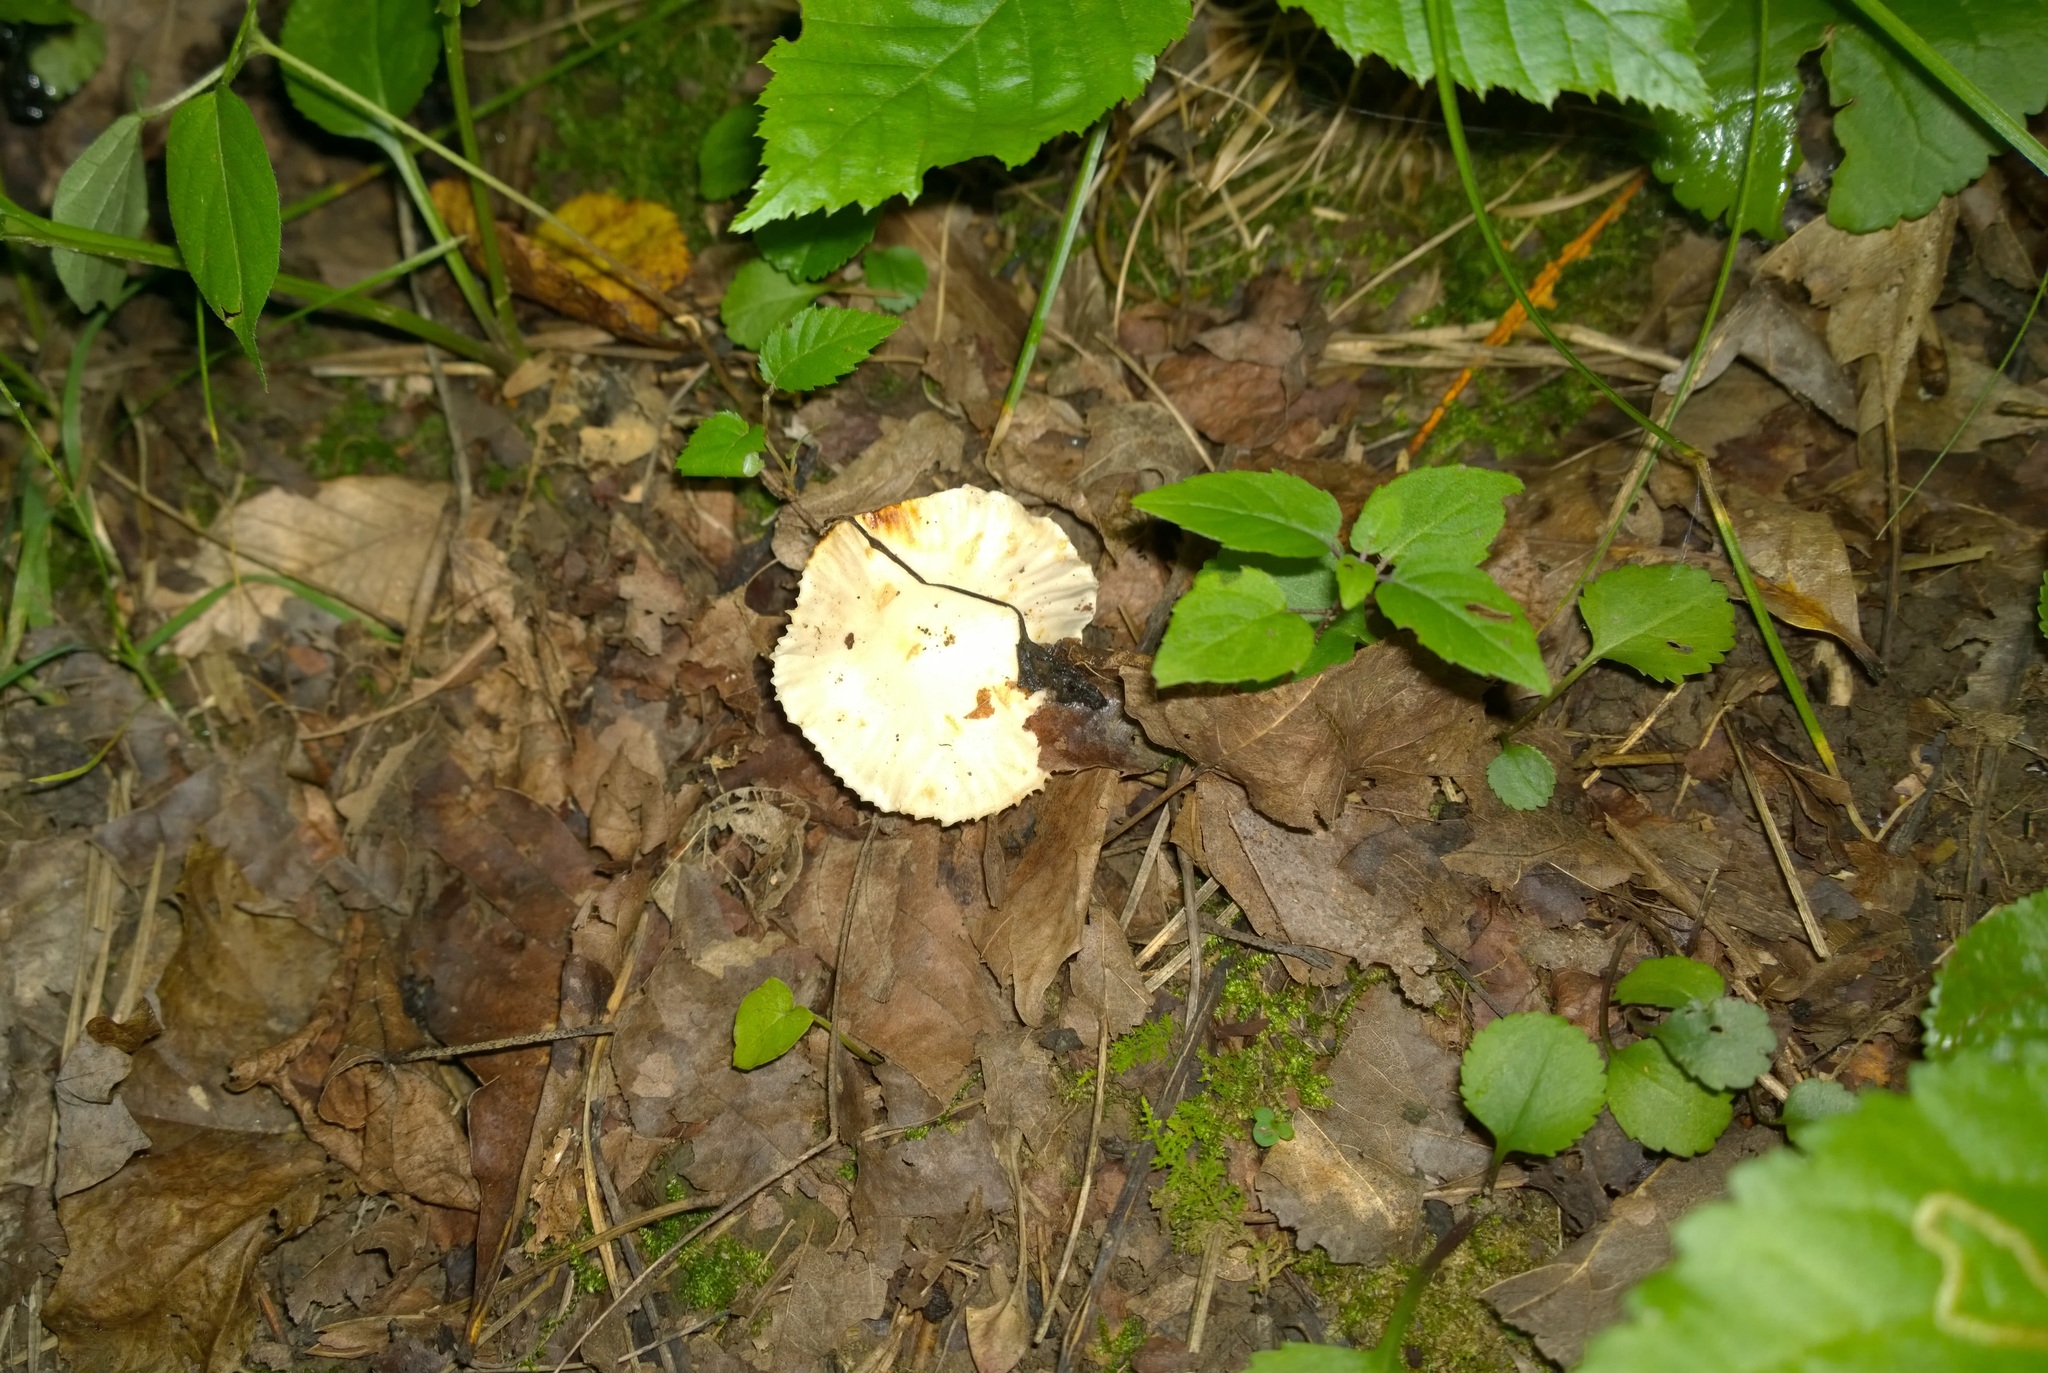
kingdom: Fungi
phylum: Basidiomycota
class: Agaricomycetes
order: Russulales
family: Russulaceae
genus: Lactarius
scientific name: Lactarius subplinthogalus
